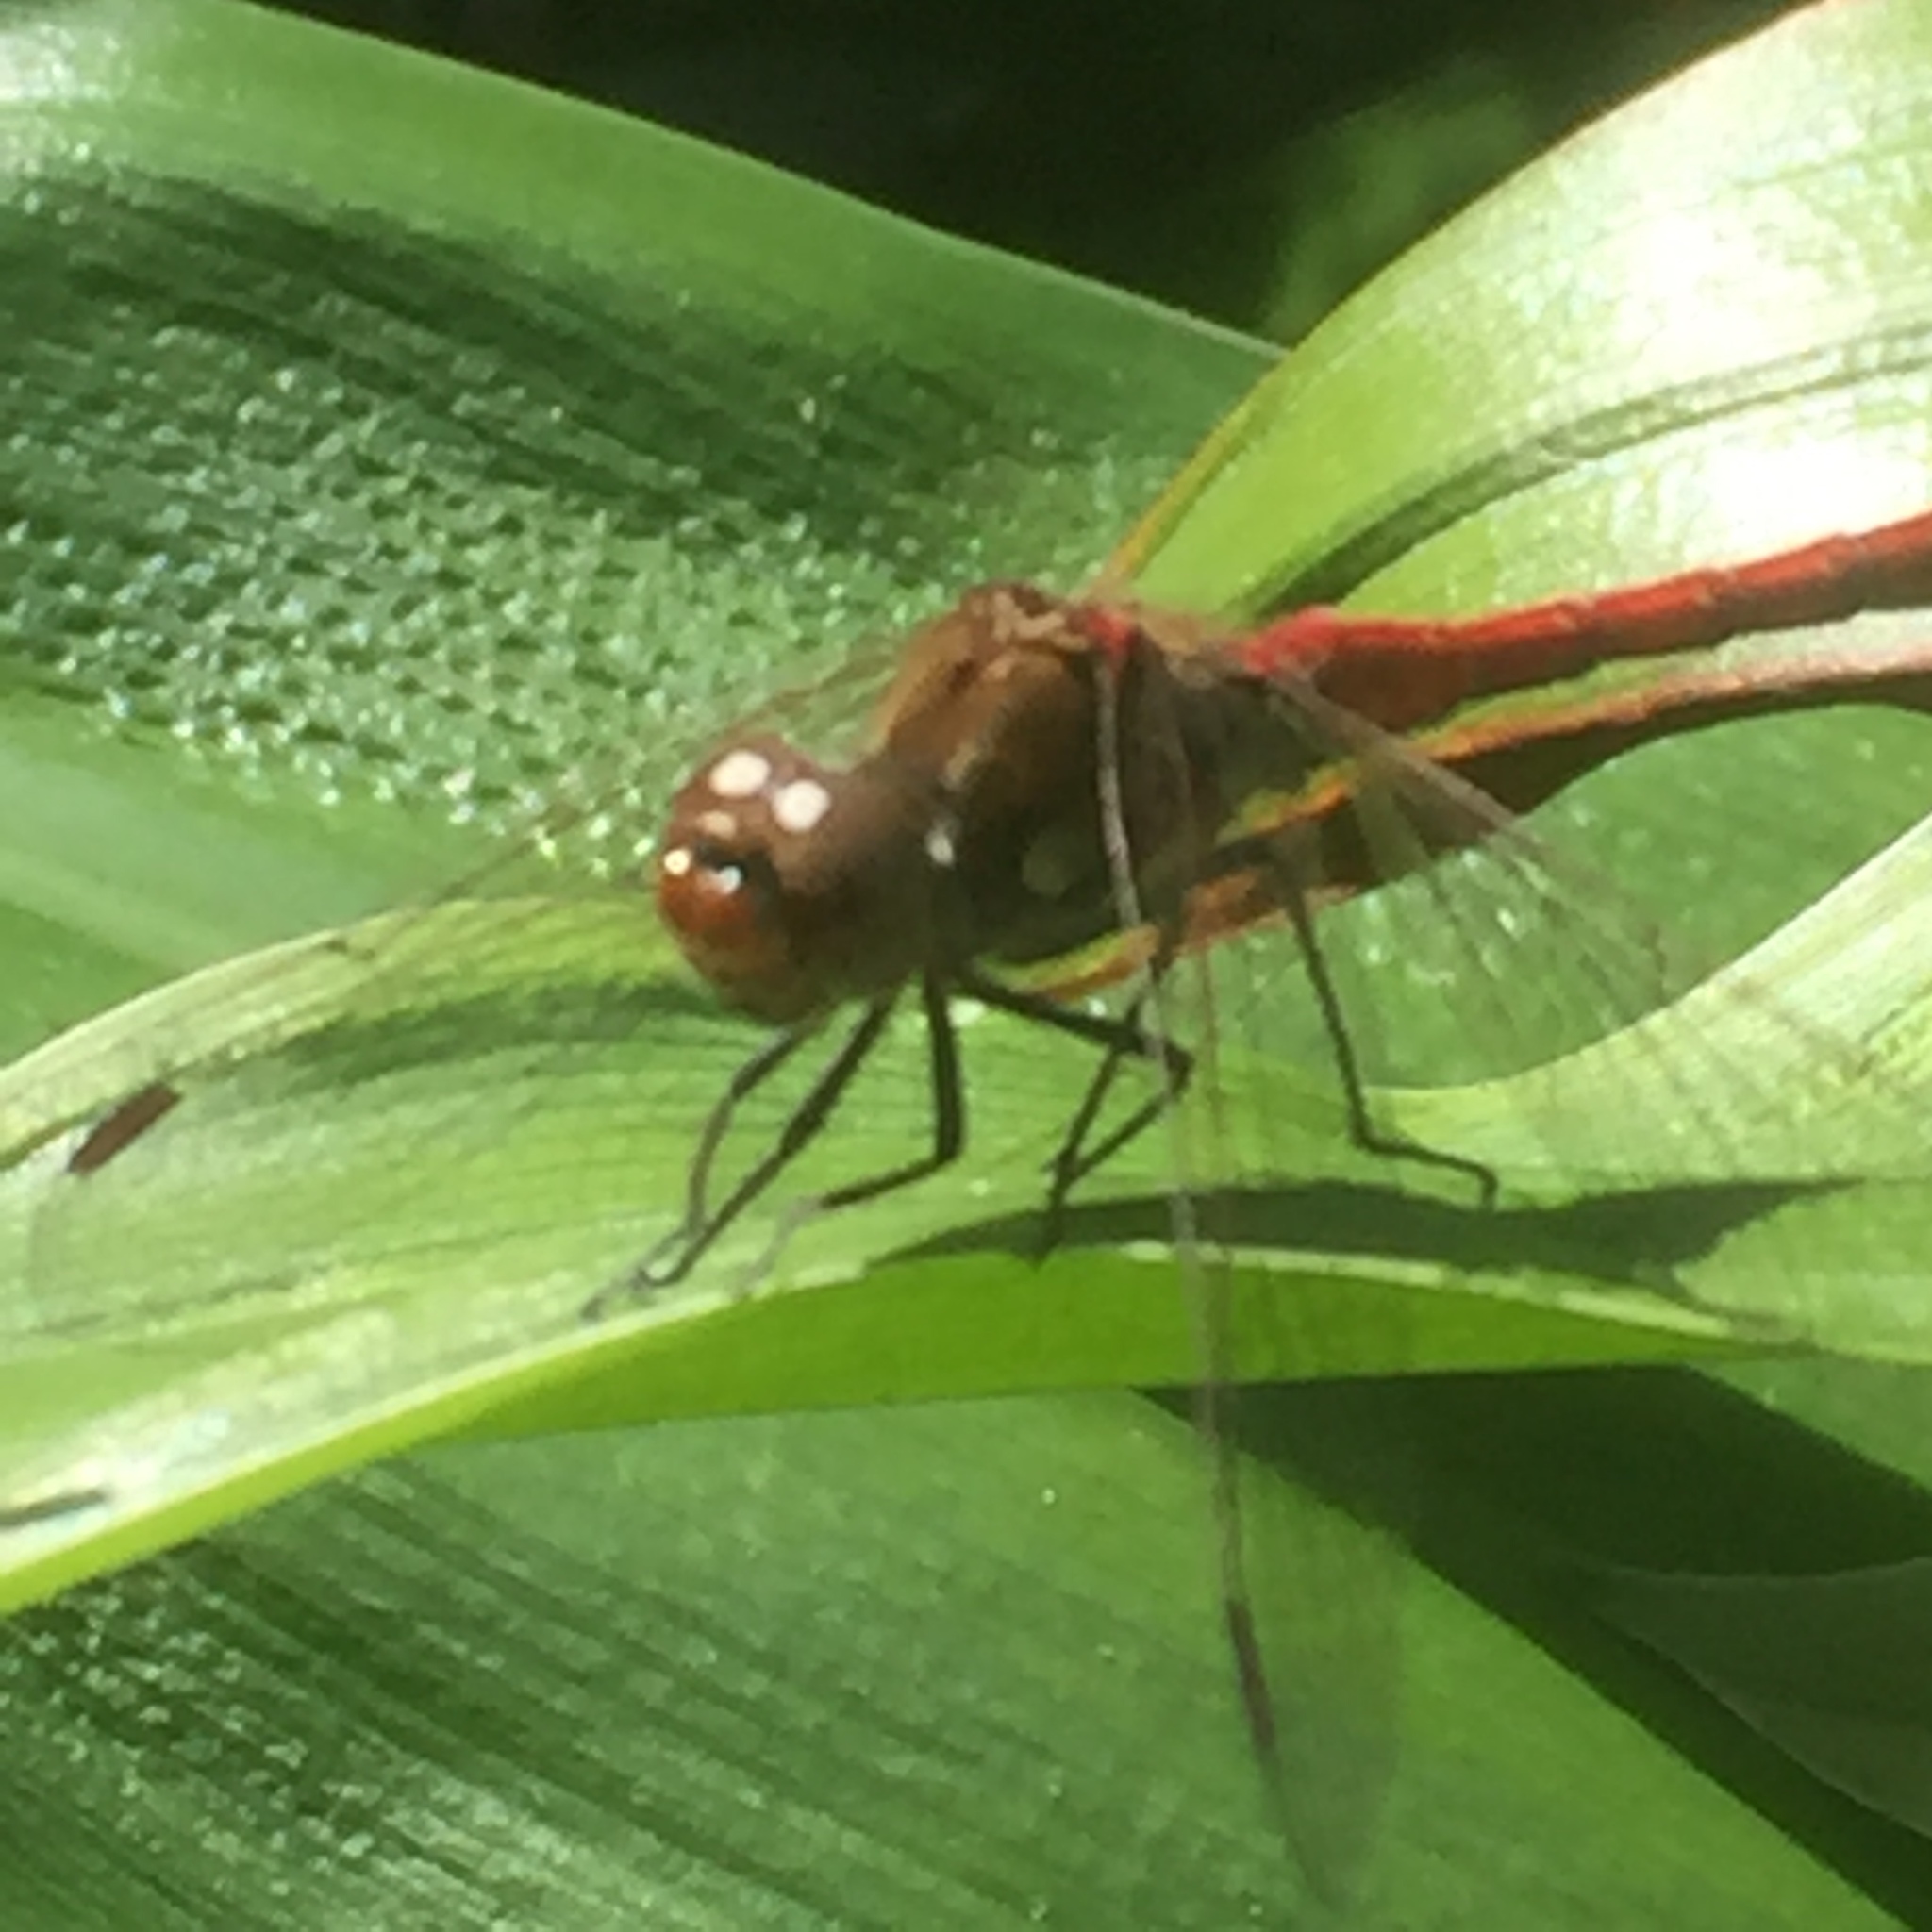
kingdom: Animalia
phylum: Arthropoda
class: Insecta
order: Odonata
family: Libellulidae
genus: Sympetrum
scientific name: Sympetrum nigrifemur
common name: Island darter
